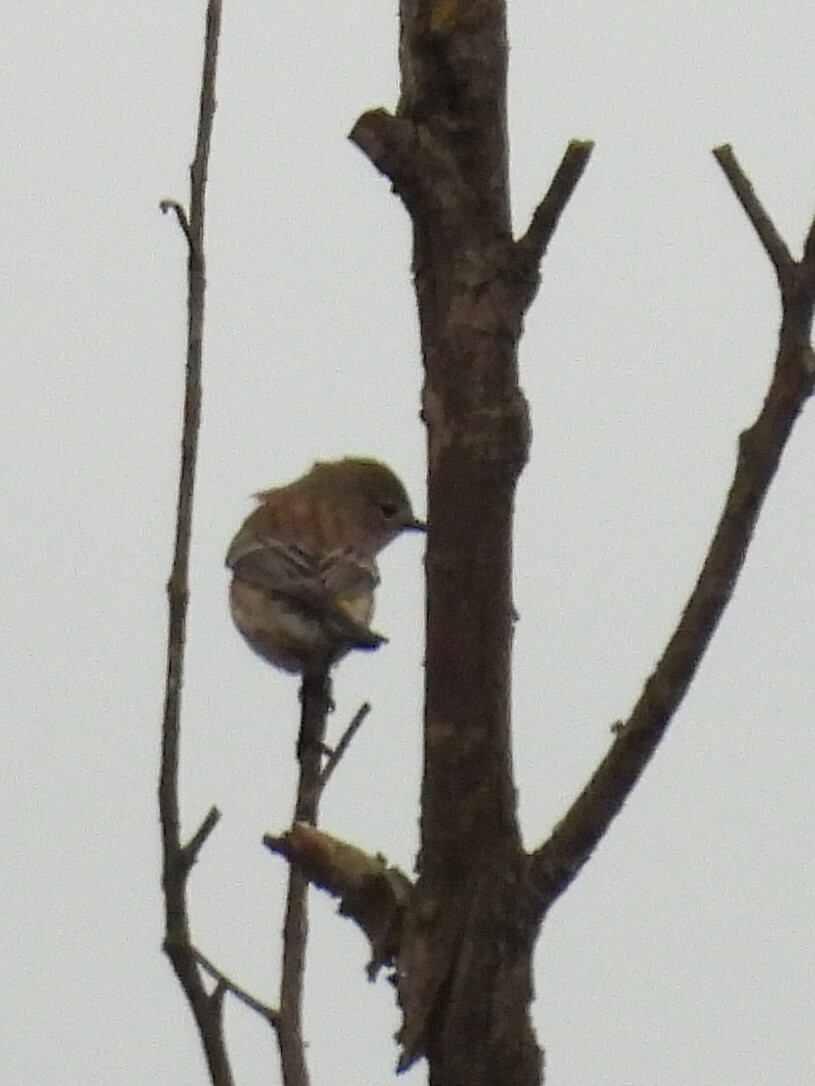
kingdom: Animalia
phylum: Chordata
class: Aves
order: Passeriformes
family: Parulidae
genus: Setophaga
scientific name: Setophaga coronata
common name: Myrtle warbler
